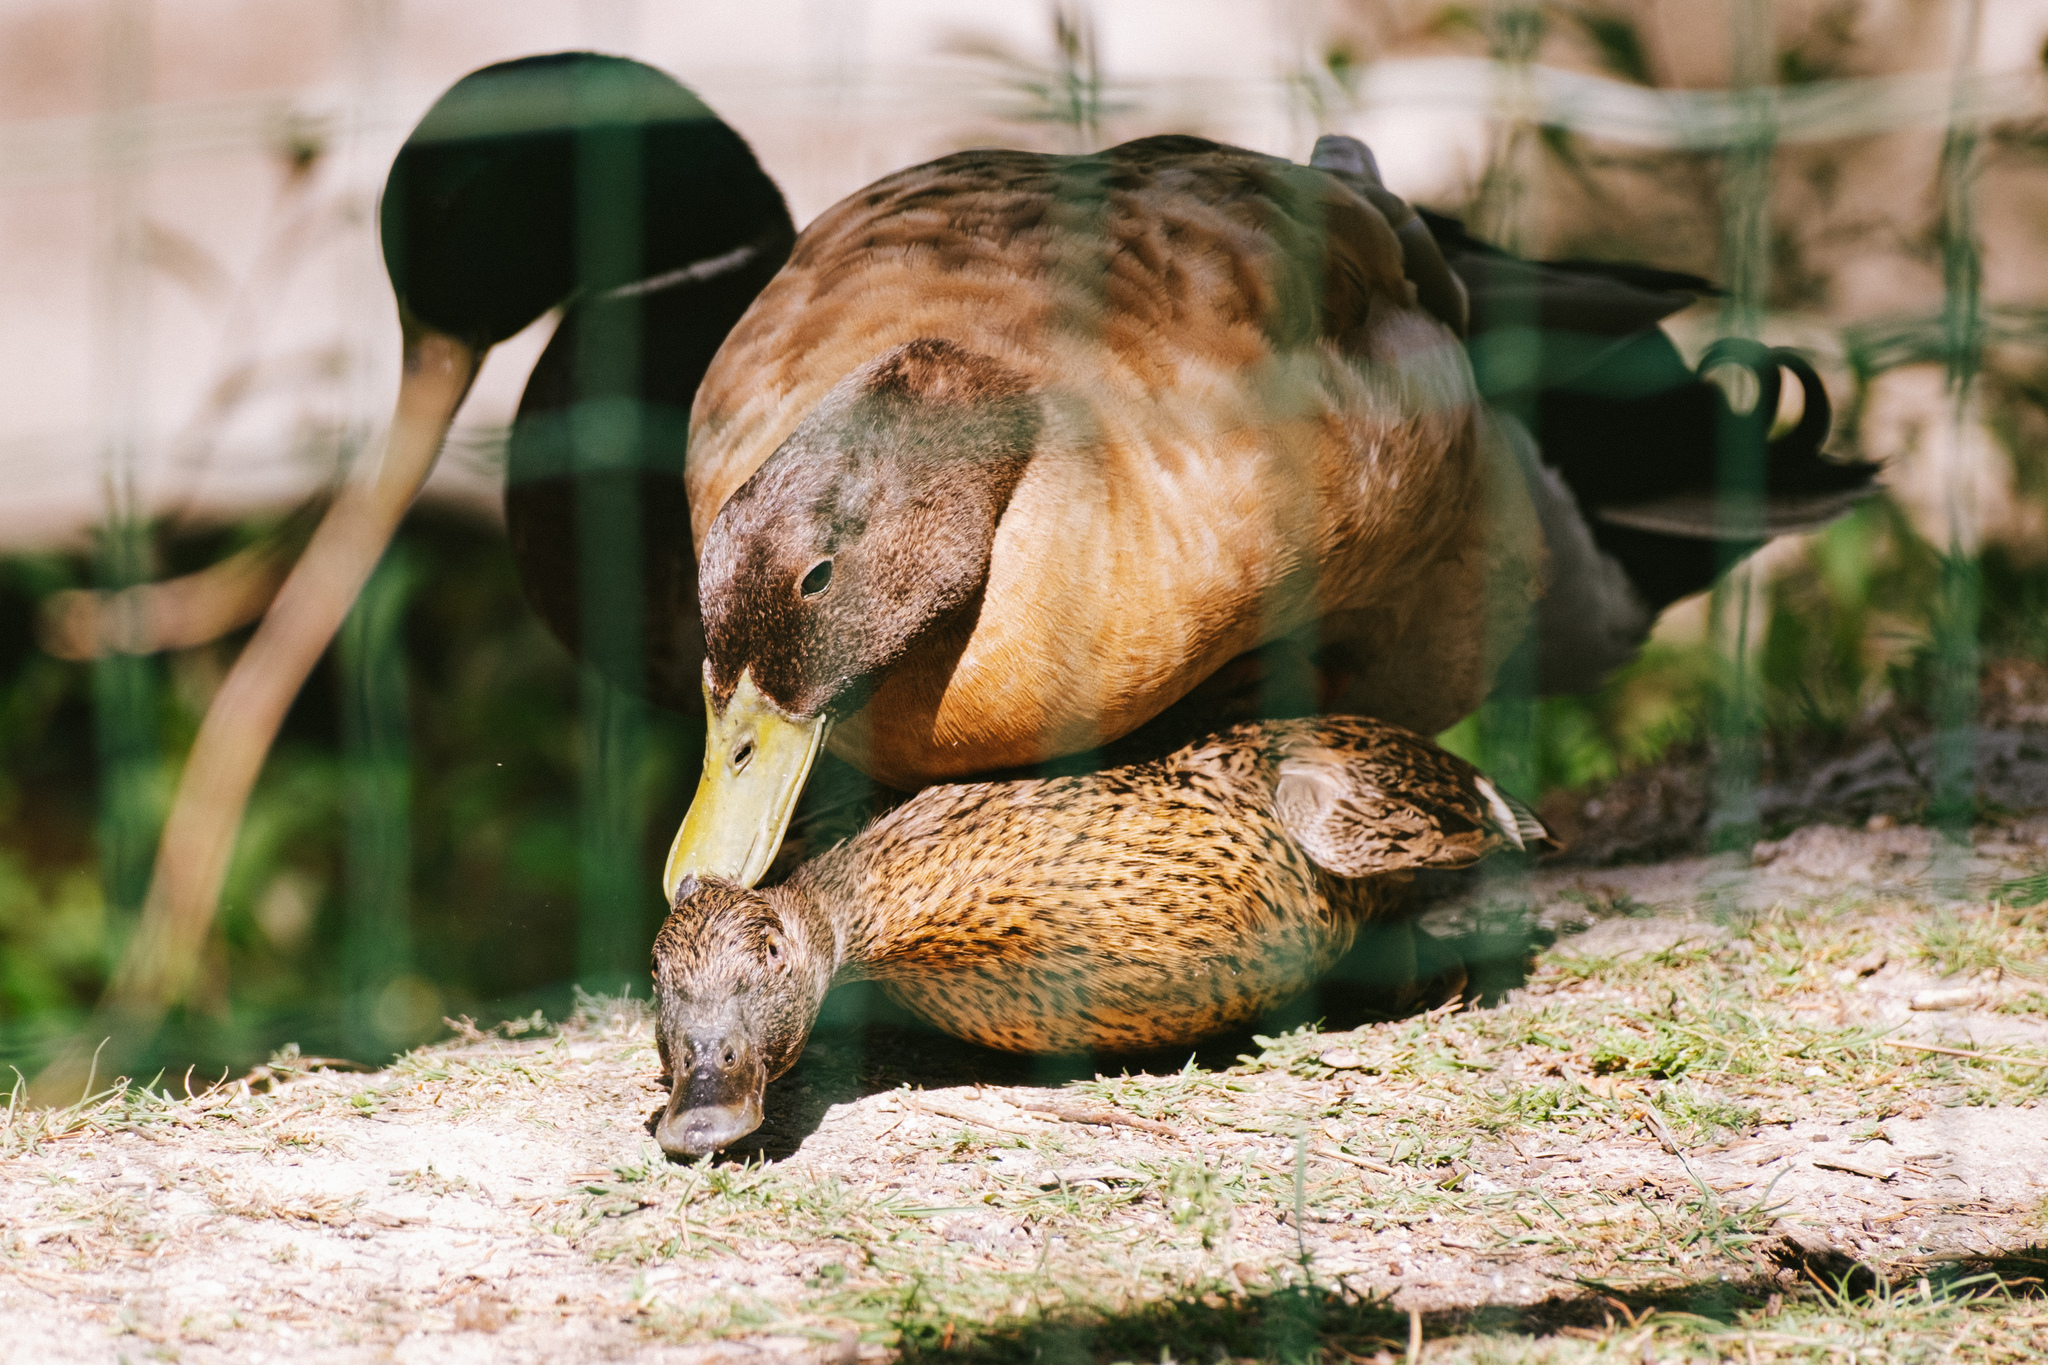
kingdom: Animalia
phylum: Chordata
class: Aves
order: Anseriformes
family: Anatidae
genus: Anas
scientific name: Anas platyrhynchos
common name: Mallard
